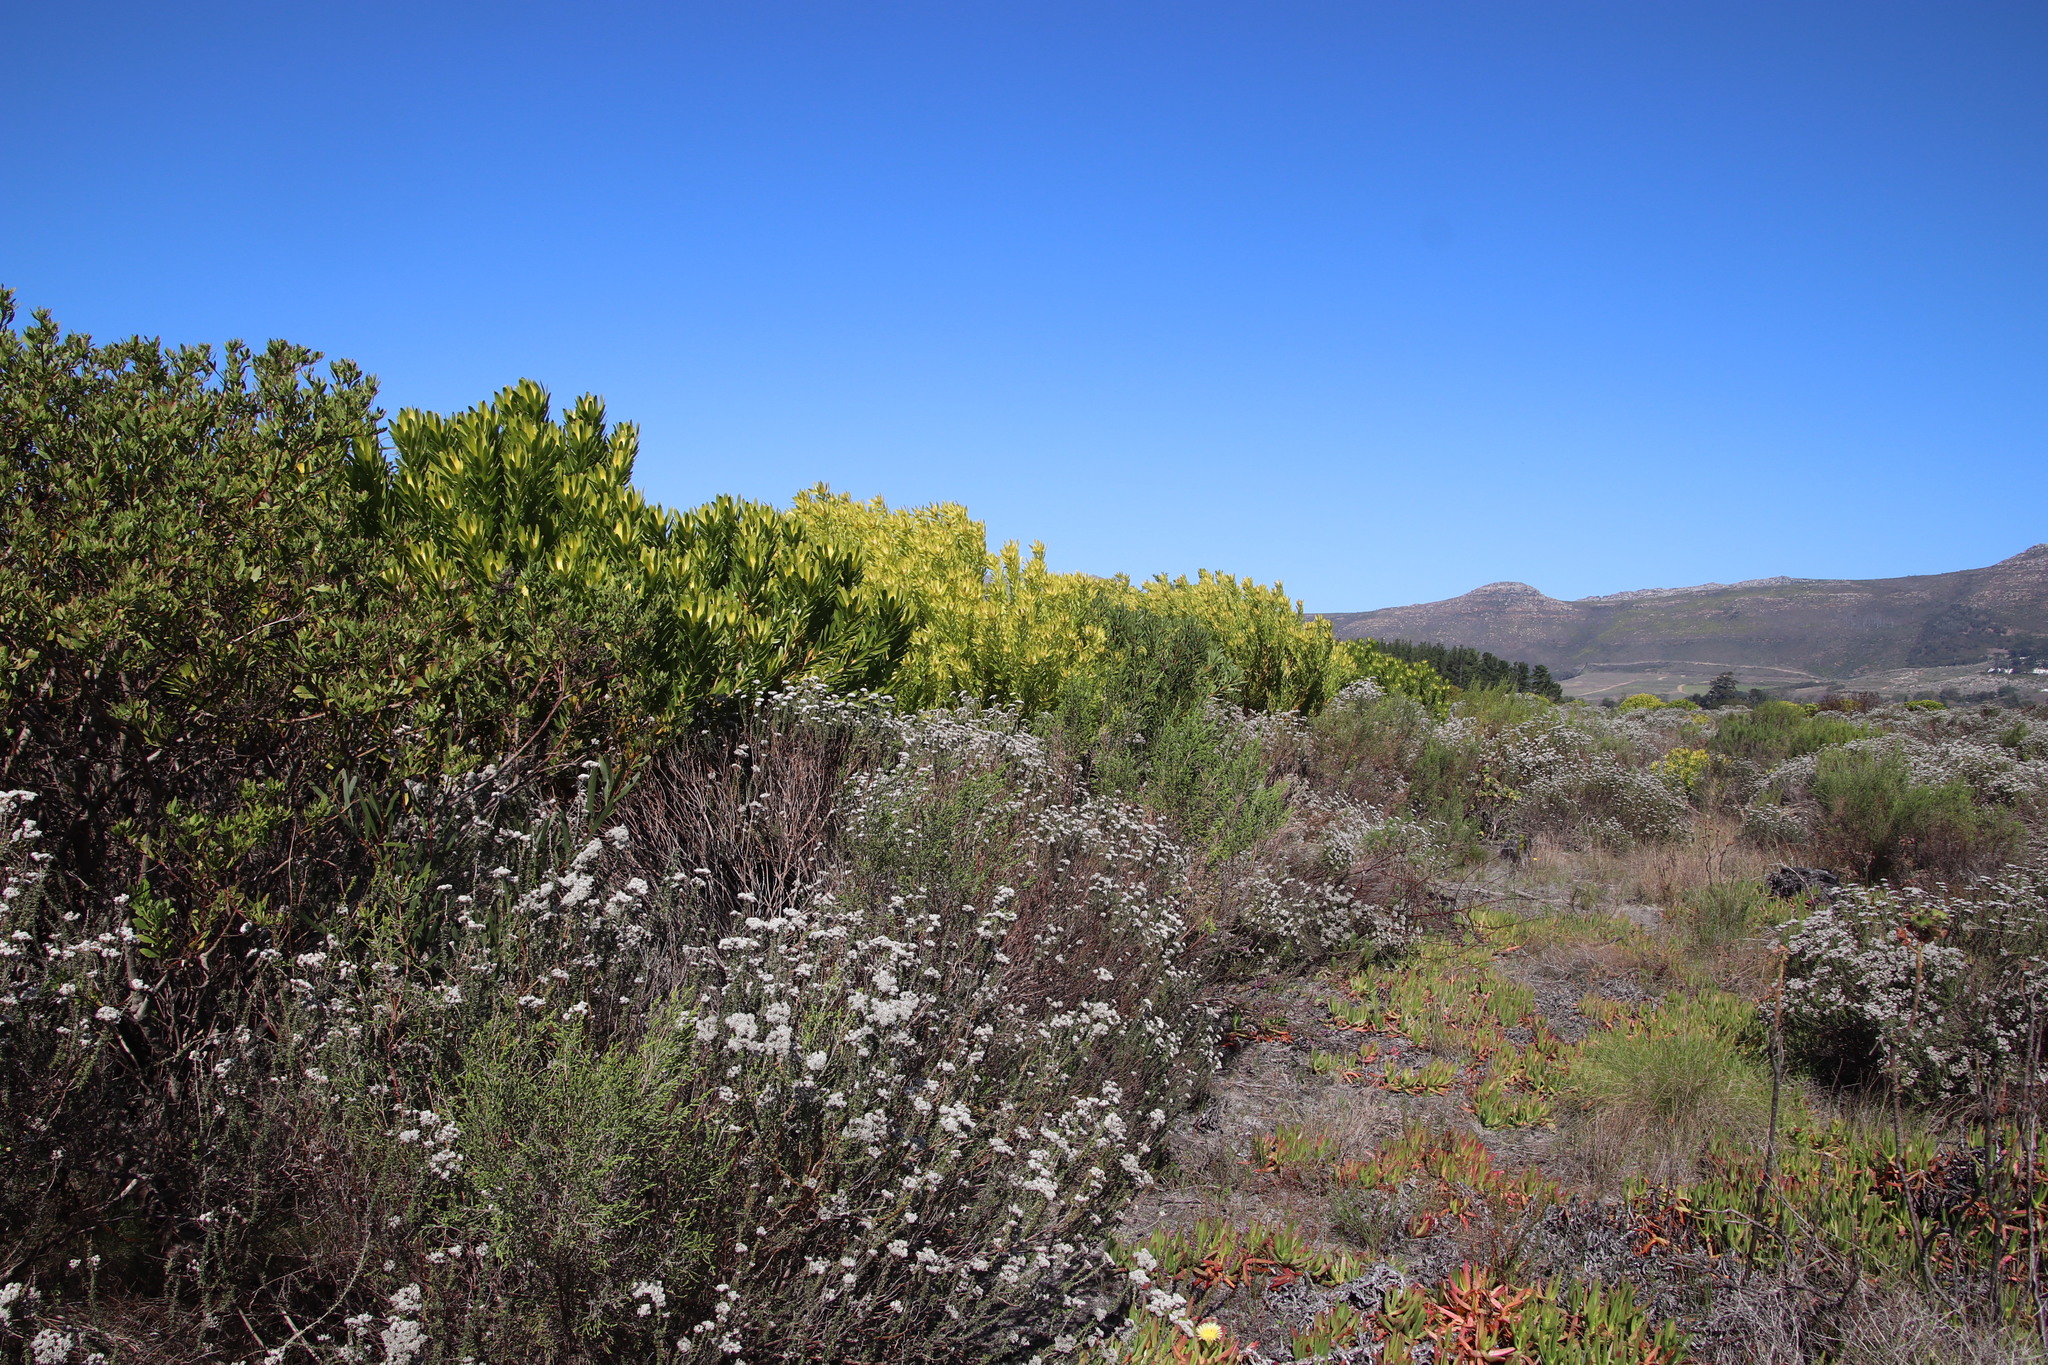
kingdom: Plantae
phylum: Tracheophyta
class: Magnoliopsida
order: Proteales
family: Proteaceae
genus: Leucadendron
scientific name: Leucadendron laureolum
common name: Golden sunshinebush
